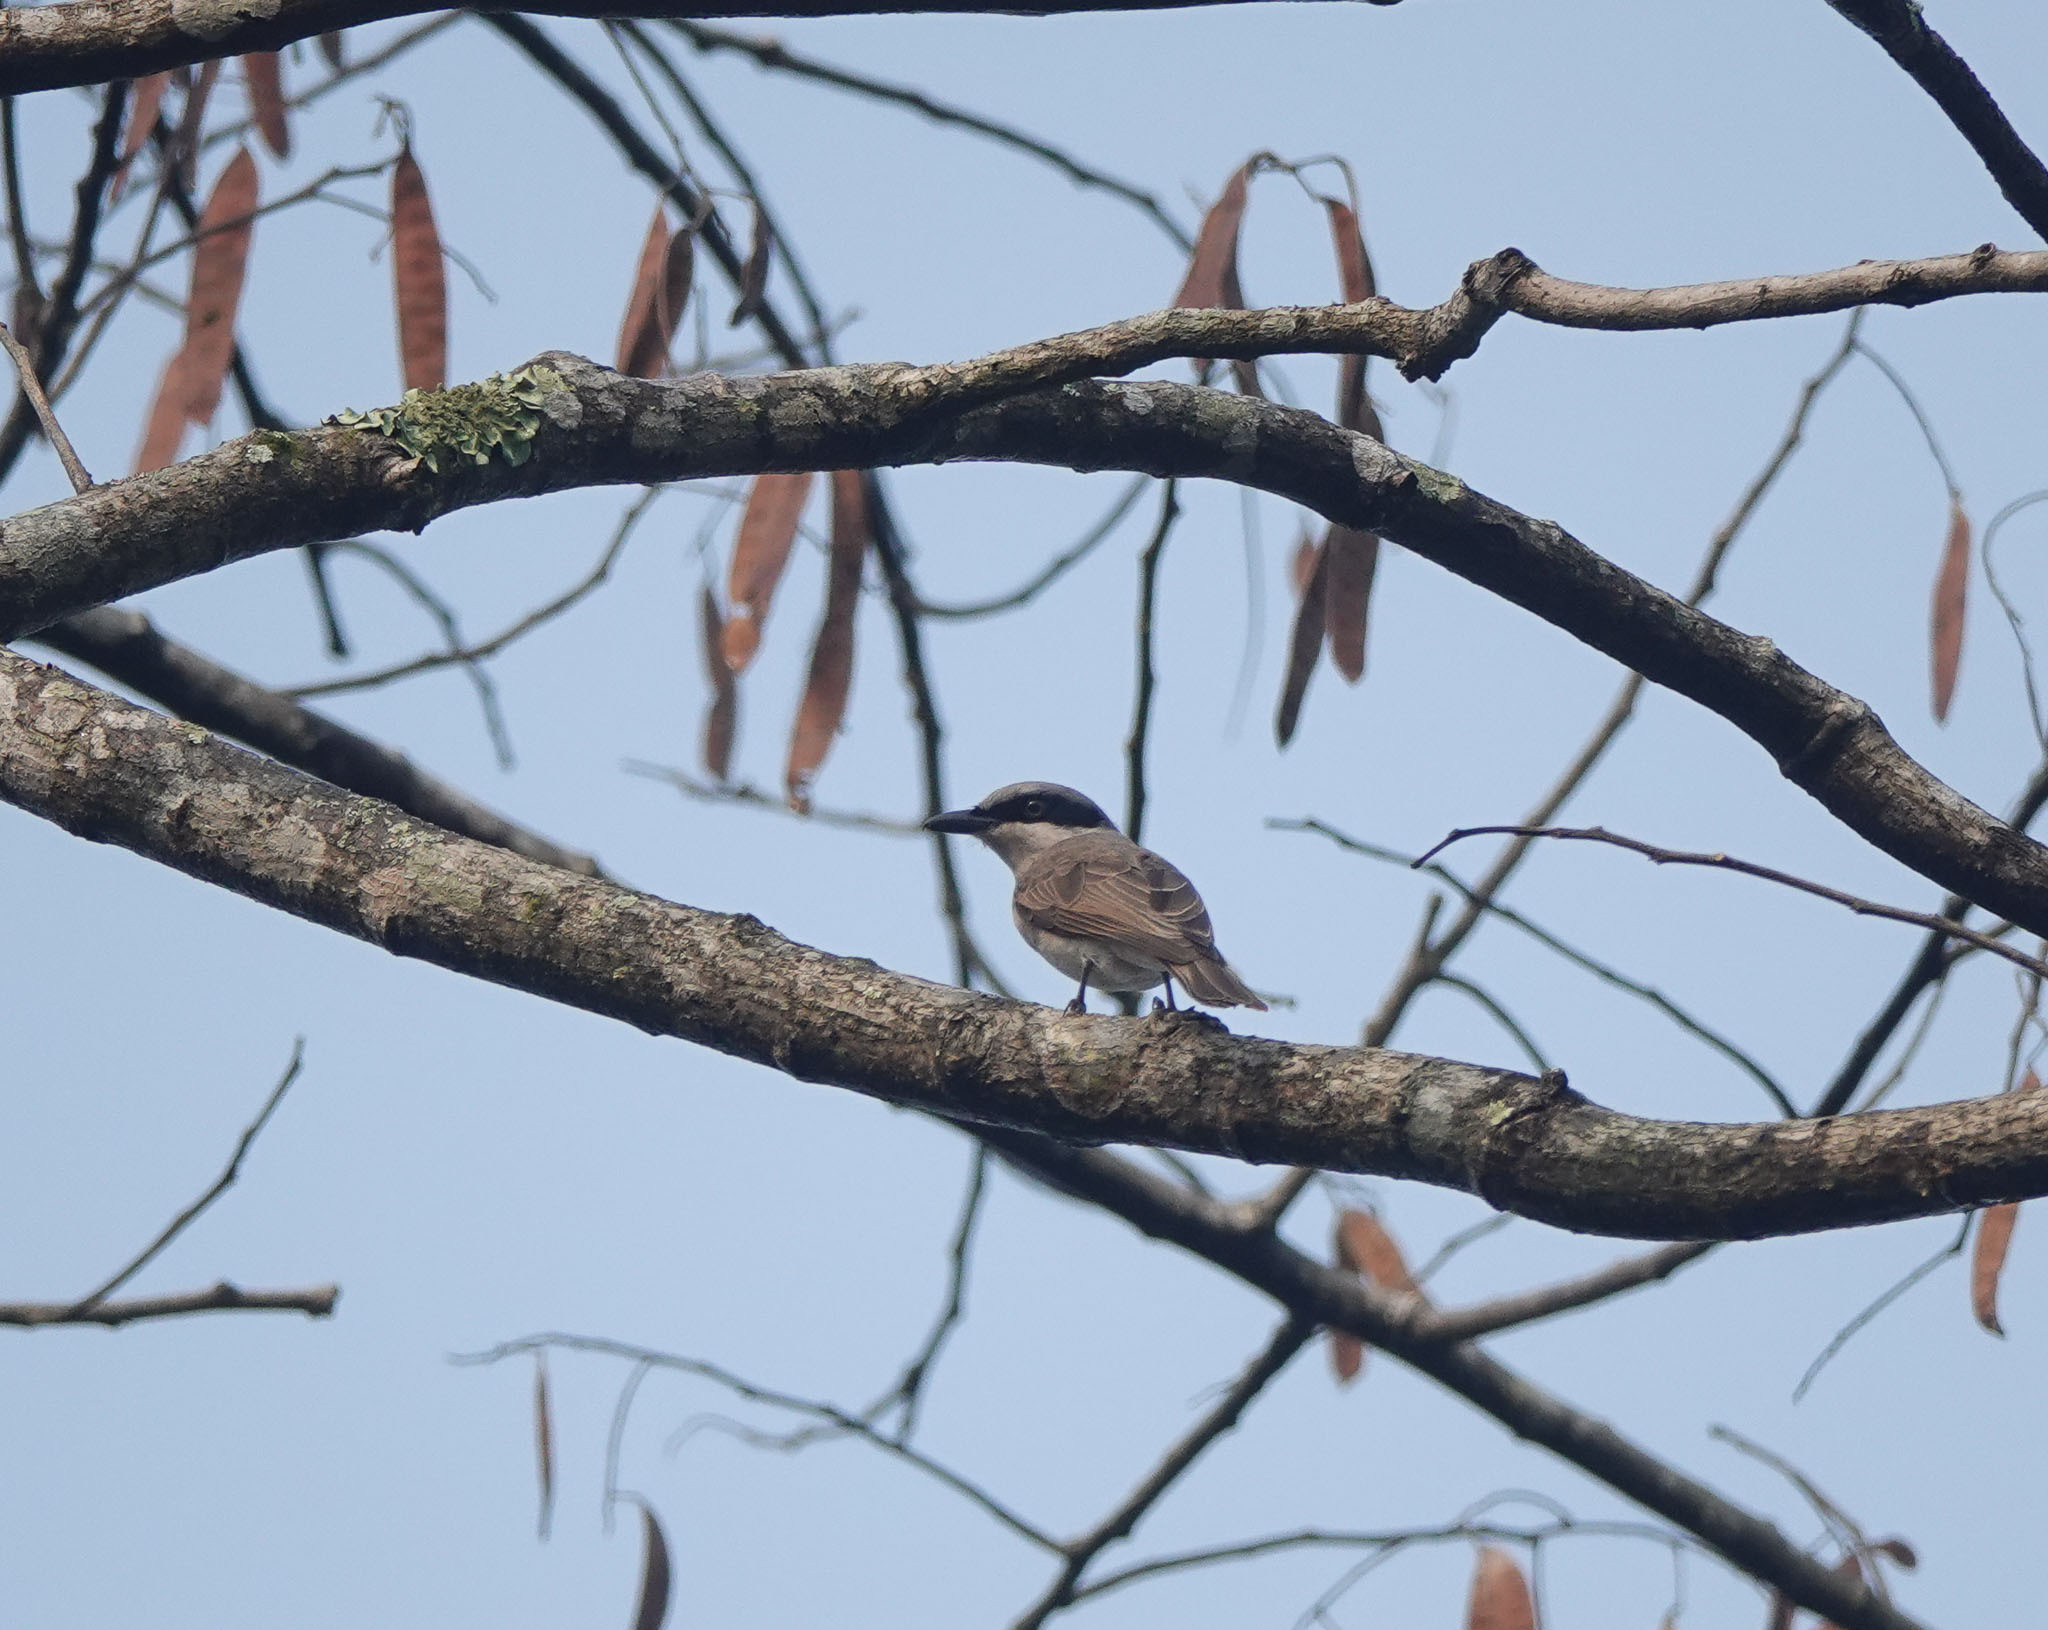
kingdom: Animalia
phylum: Chordata
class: Aves
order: Passeriformes
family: Tephrodornithidae
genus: Tephrodornis
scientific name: Tephrodornis virgatus
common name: Large woodshrike
